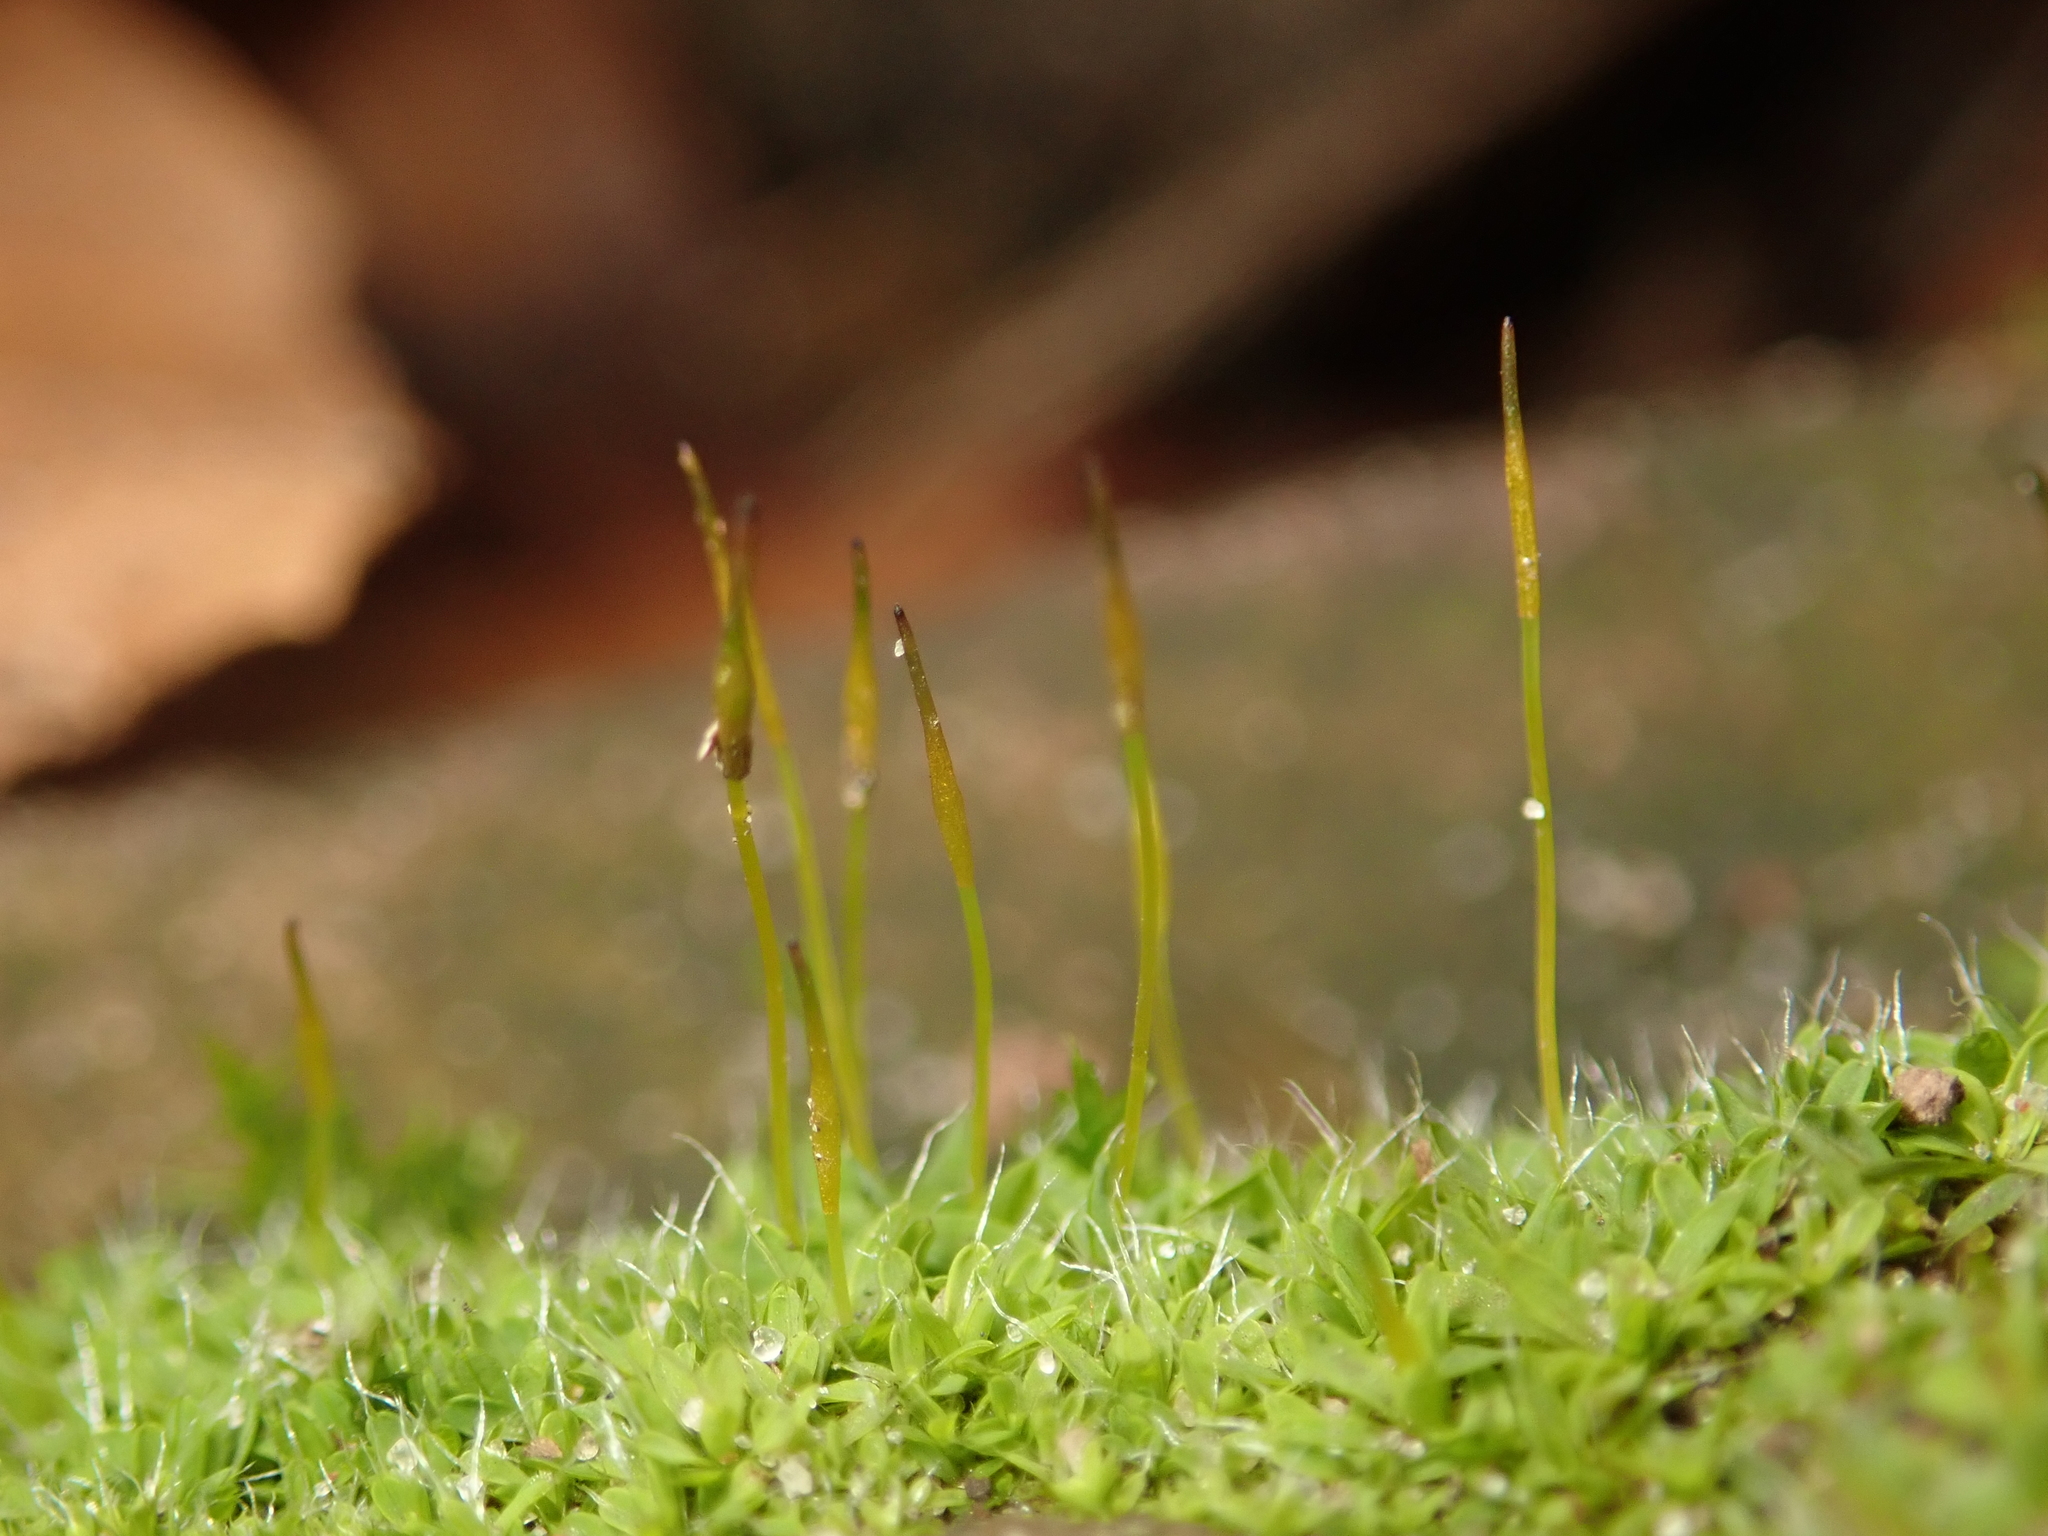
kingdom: Plantae
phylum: Bryophyta
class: Bryopsida
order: Pottiales
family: Pottiaceae
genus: Tortula
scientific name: Tortula muralis
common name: Wall screw-moss
